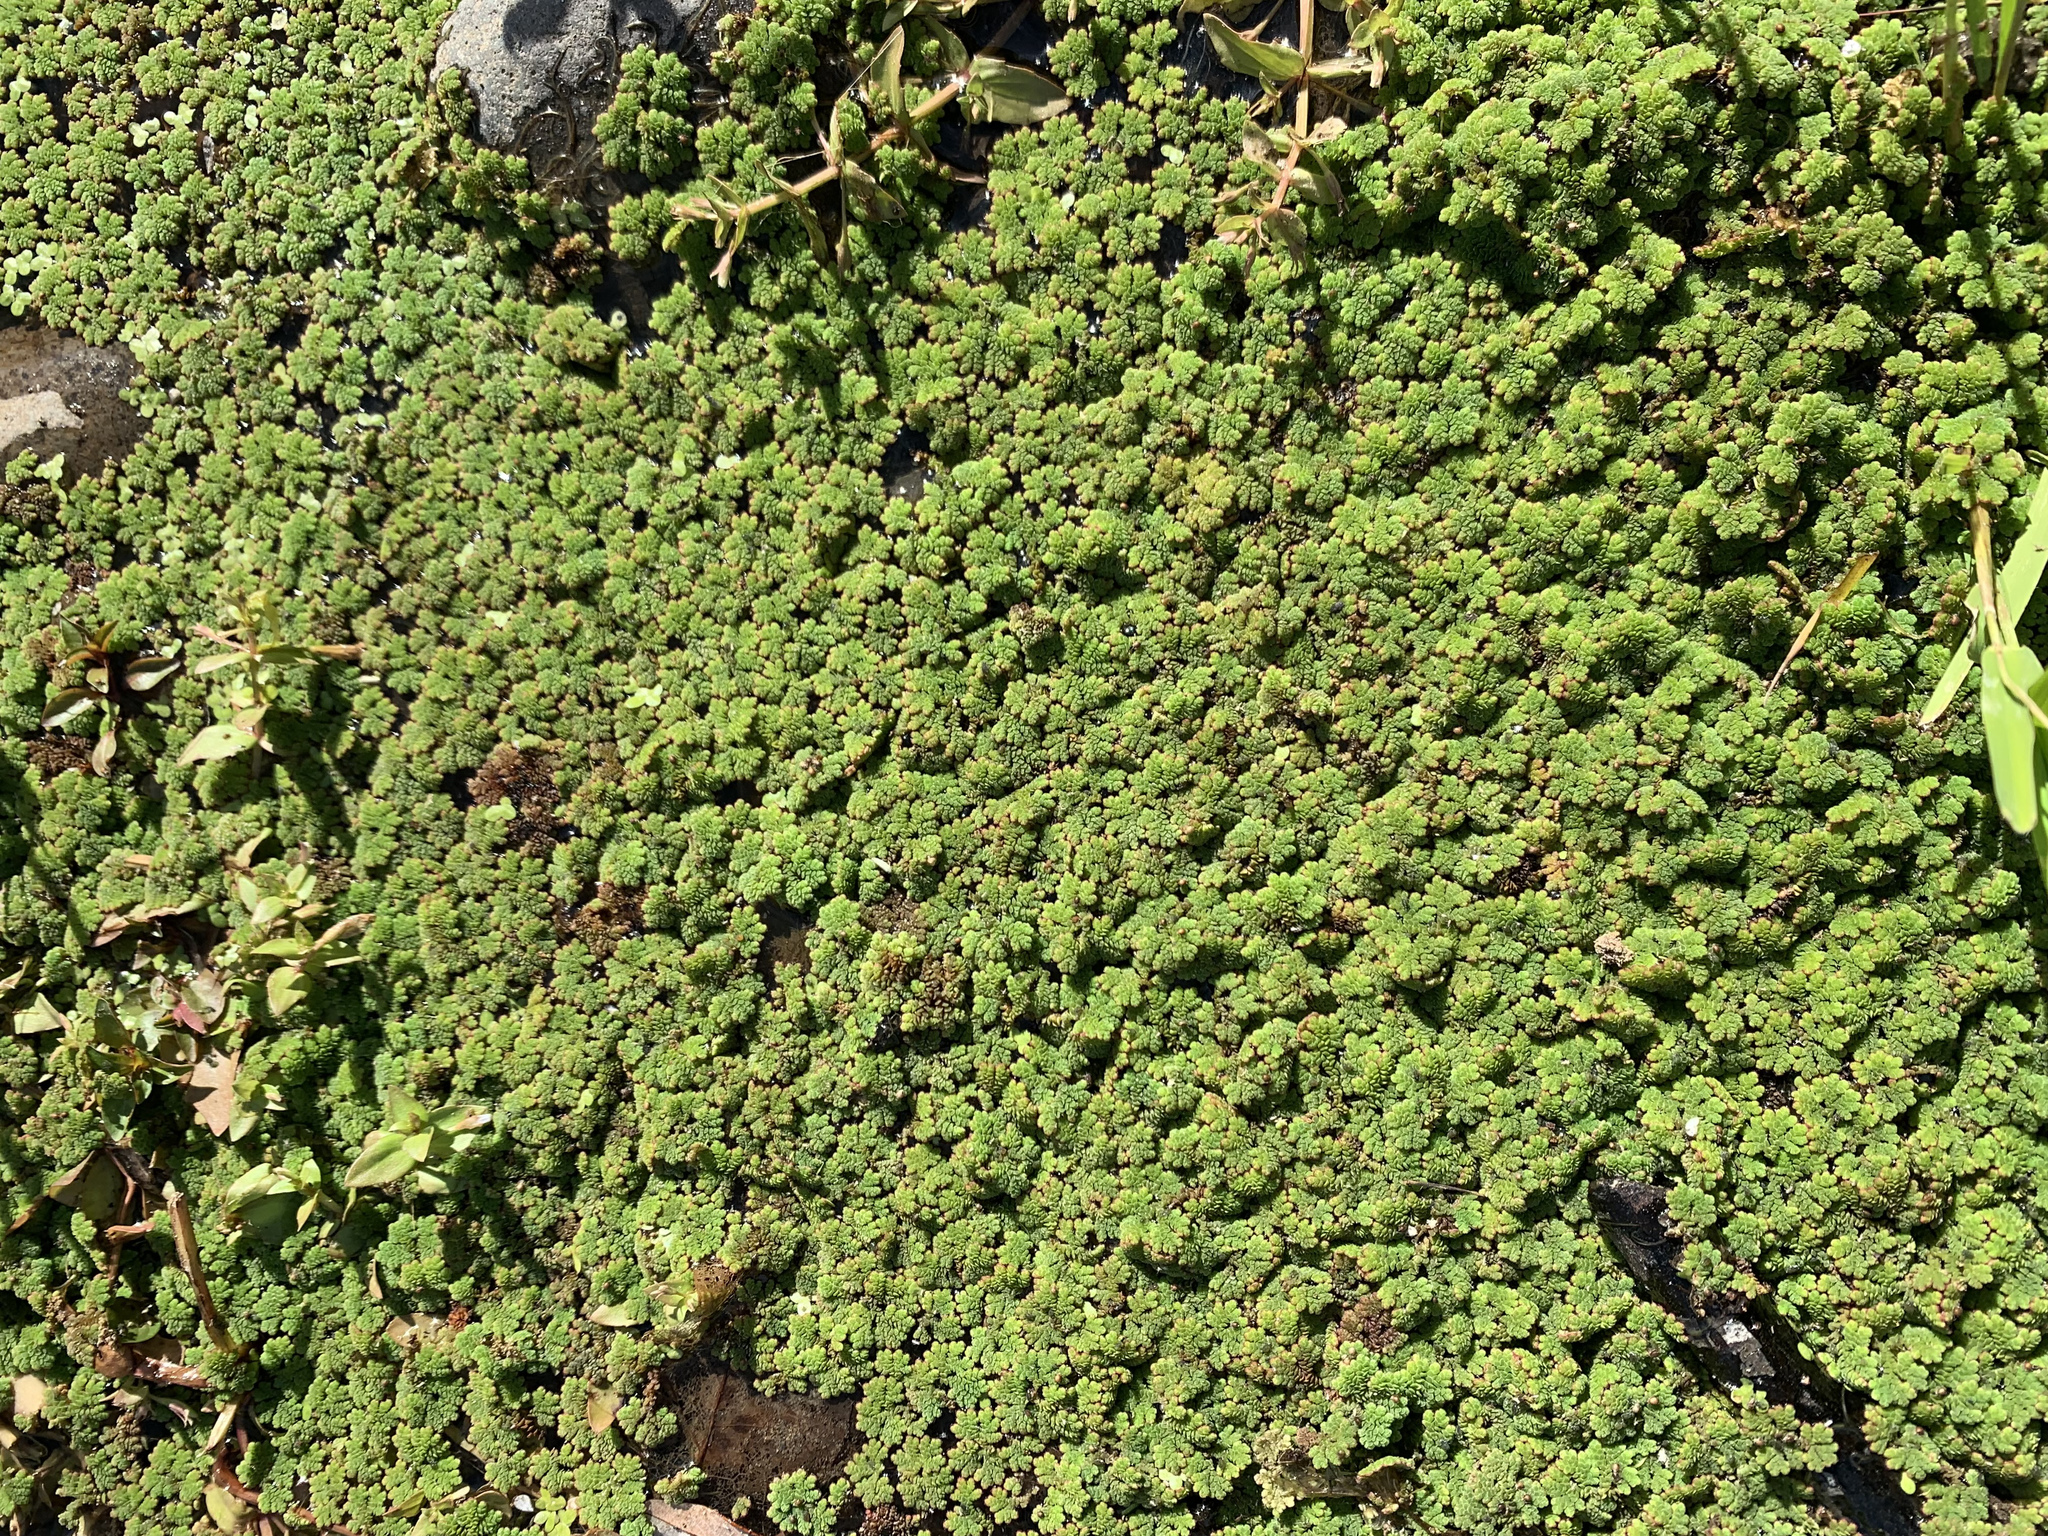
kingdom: Plantae
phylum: Tracheophyta
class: Polypodiopsida
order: Salviniales
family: Salviniaceae
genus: Azolla
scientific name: Azolla filiculoides
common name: Water fern
